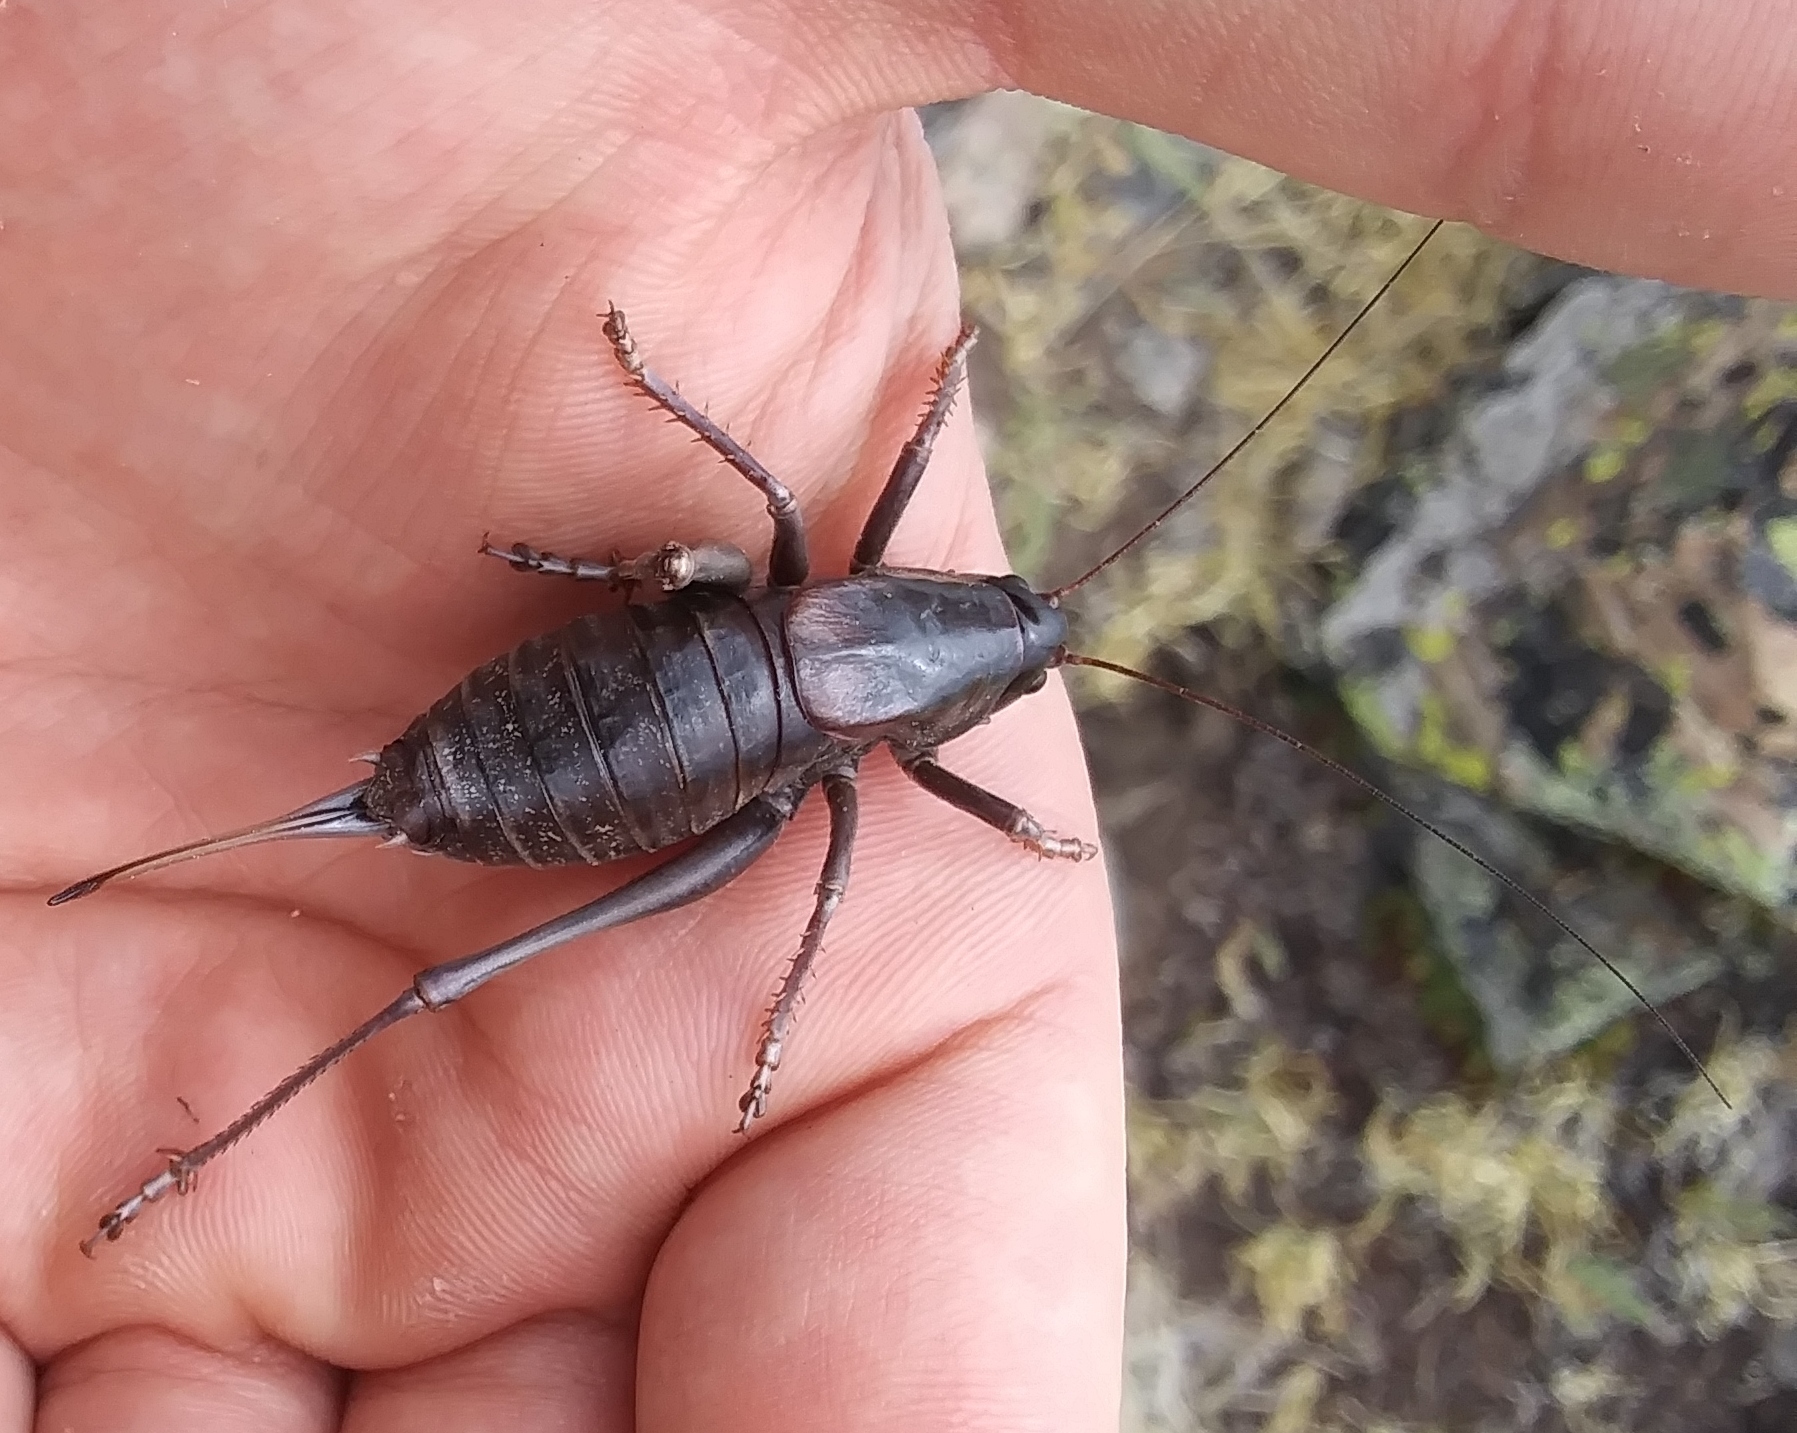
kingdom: Animalia
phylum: Arthropoda
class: Insecta
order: Orthoptera
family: Tettigoniidae
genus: Anabrus
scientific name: Anabrus simplex
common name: Mormon cricket
